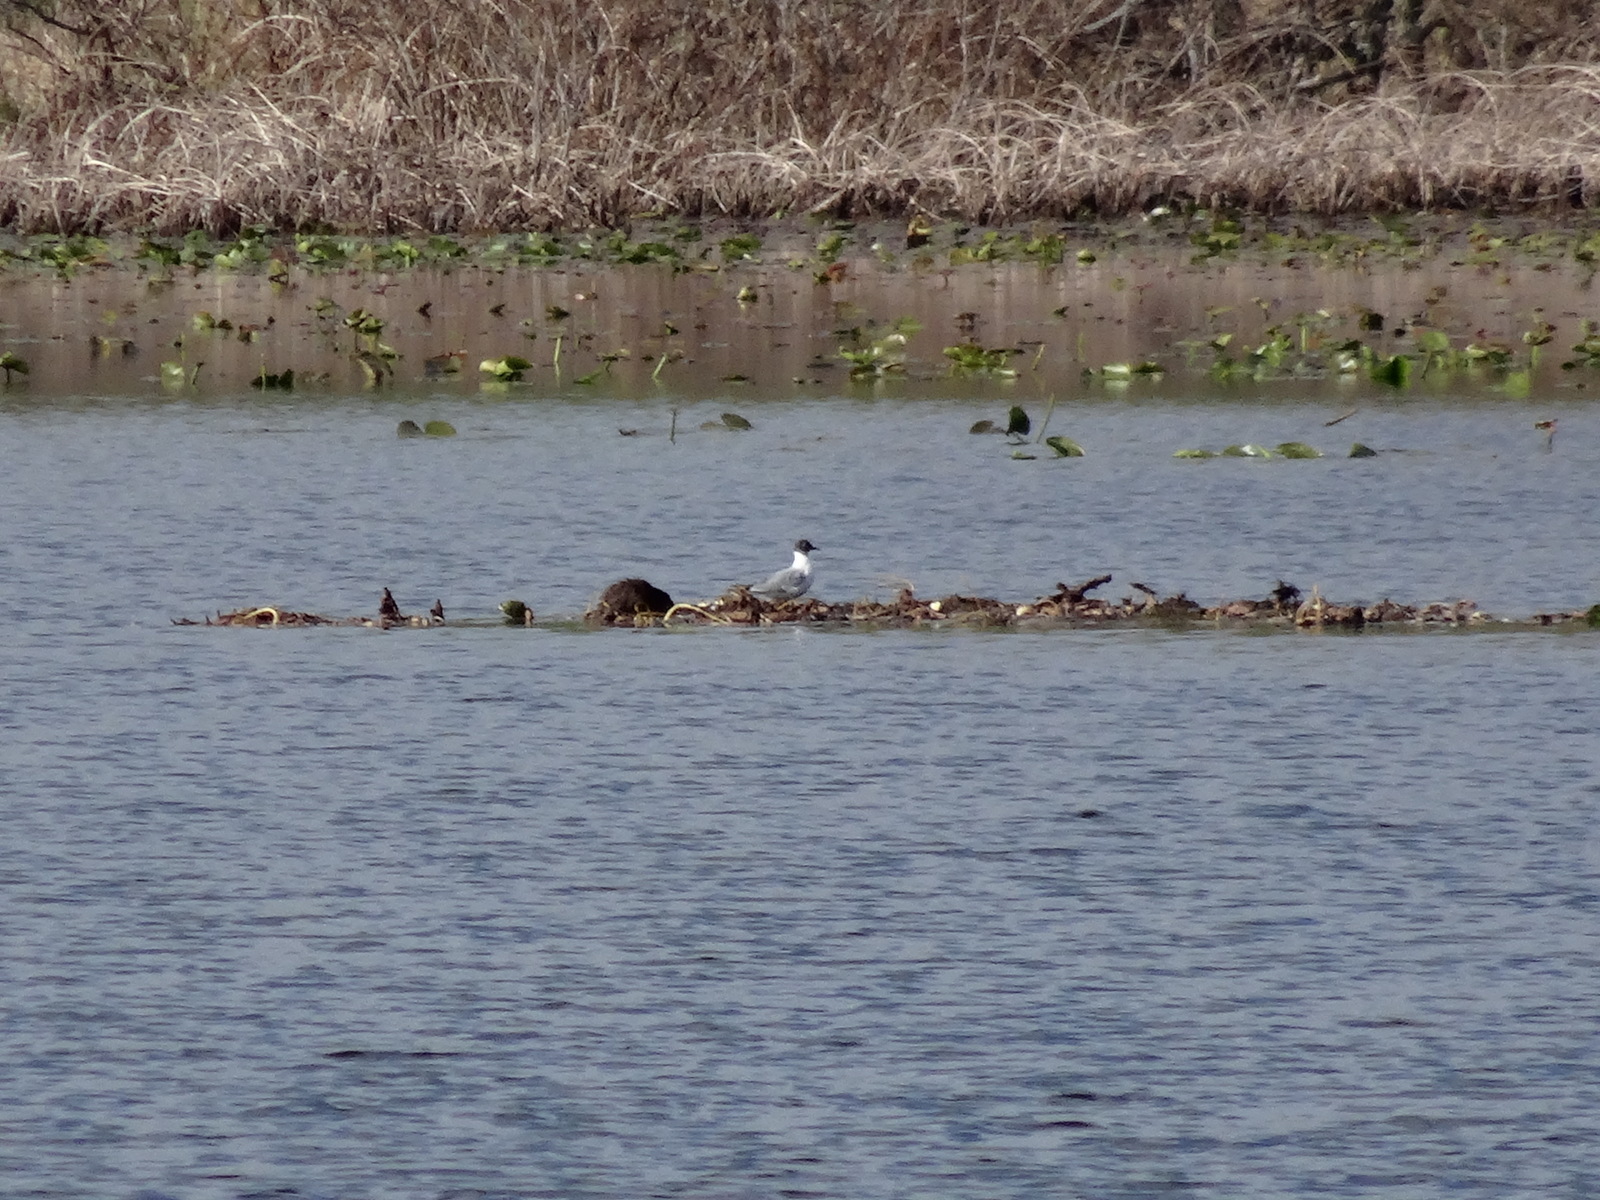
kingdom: Animalia
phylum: Chordata
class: Aves
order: Charadriiformes
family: Laridae
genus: Chroicocephalus
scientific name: Chroicocephalus philadelphia
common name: Bonaparte's gull
